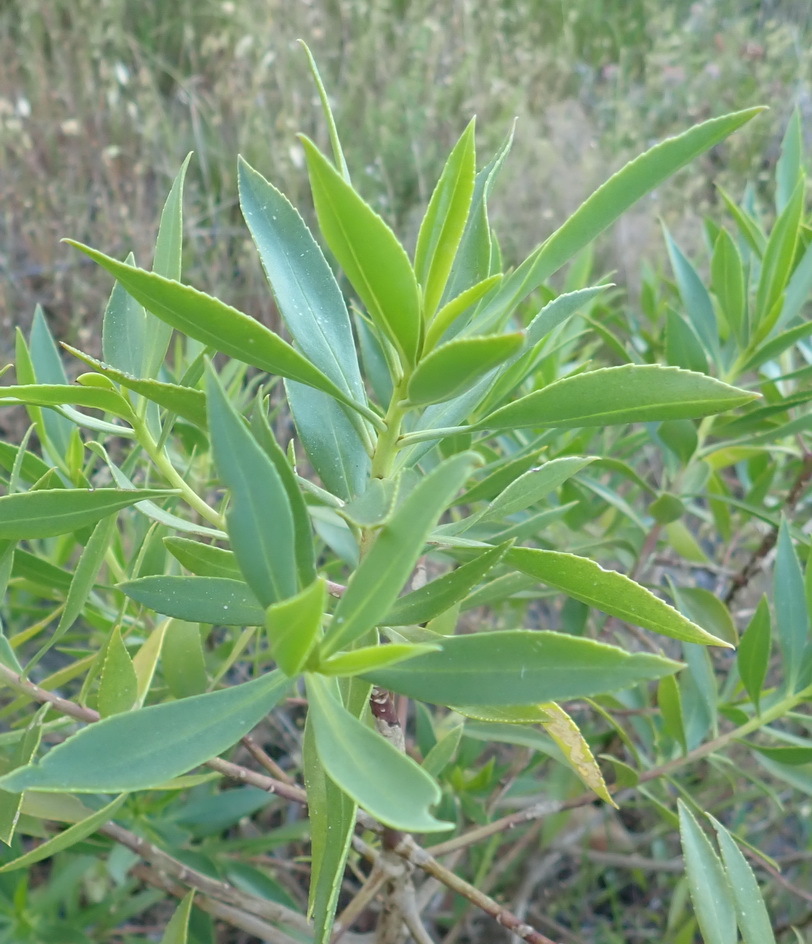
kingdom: Plantae
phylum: Tracheophyta
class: Magnoliopsida
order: Lamiales
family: Scrophulariaceae
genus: Myoporum
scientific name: Myoporum insulare
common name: Common boobialla
